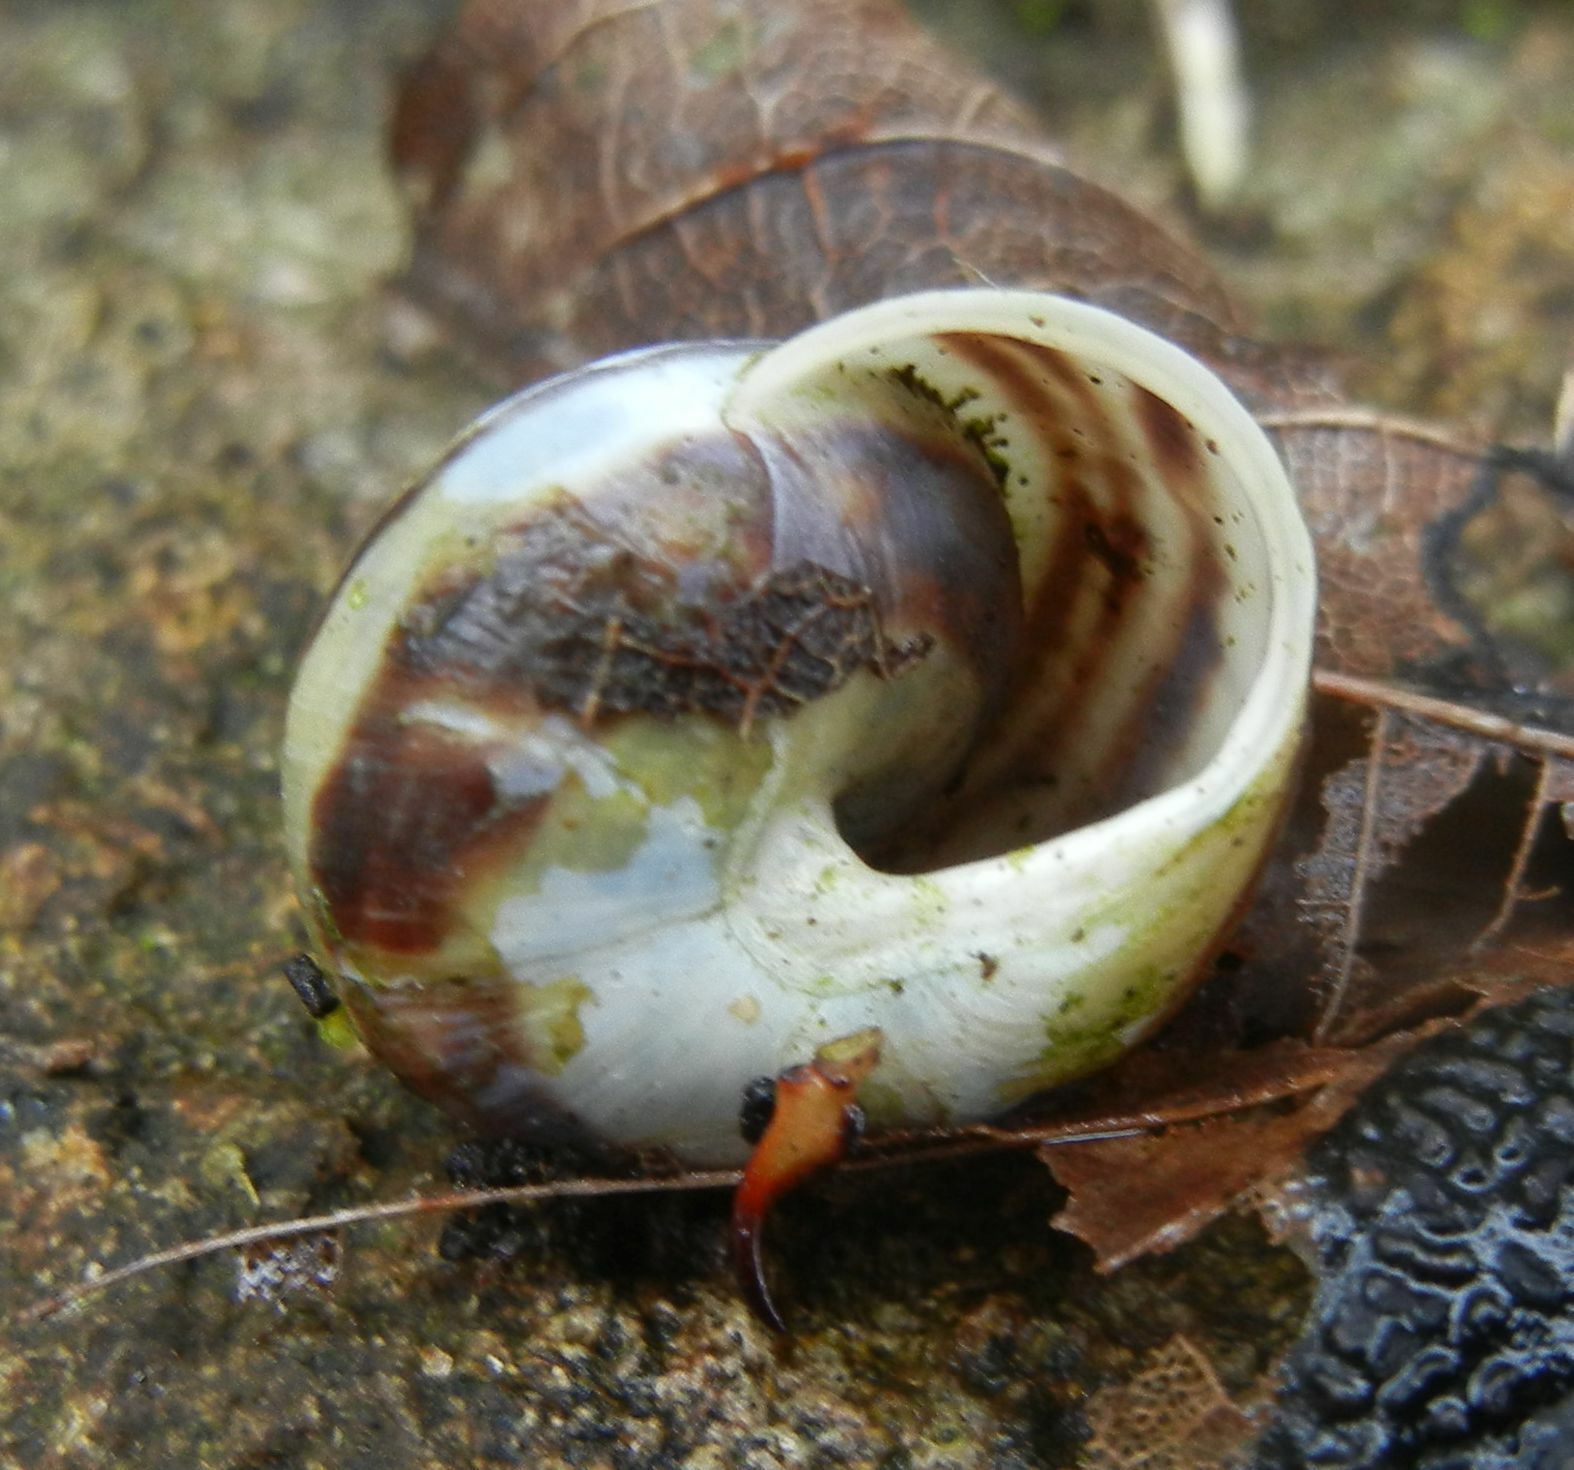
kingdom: Animalia
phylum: Mollusca
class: Gastropoda
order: Stylommatophora
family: Helicidae
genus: Cepaea
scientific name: Cepaea hortensis
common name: White-lip gardensnail
